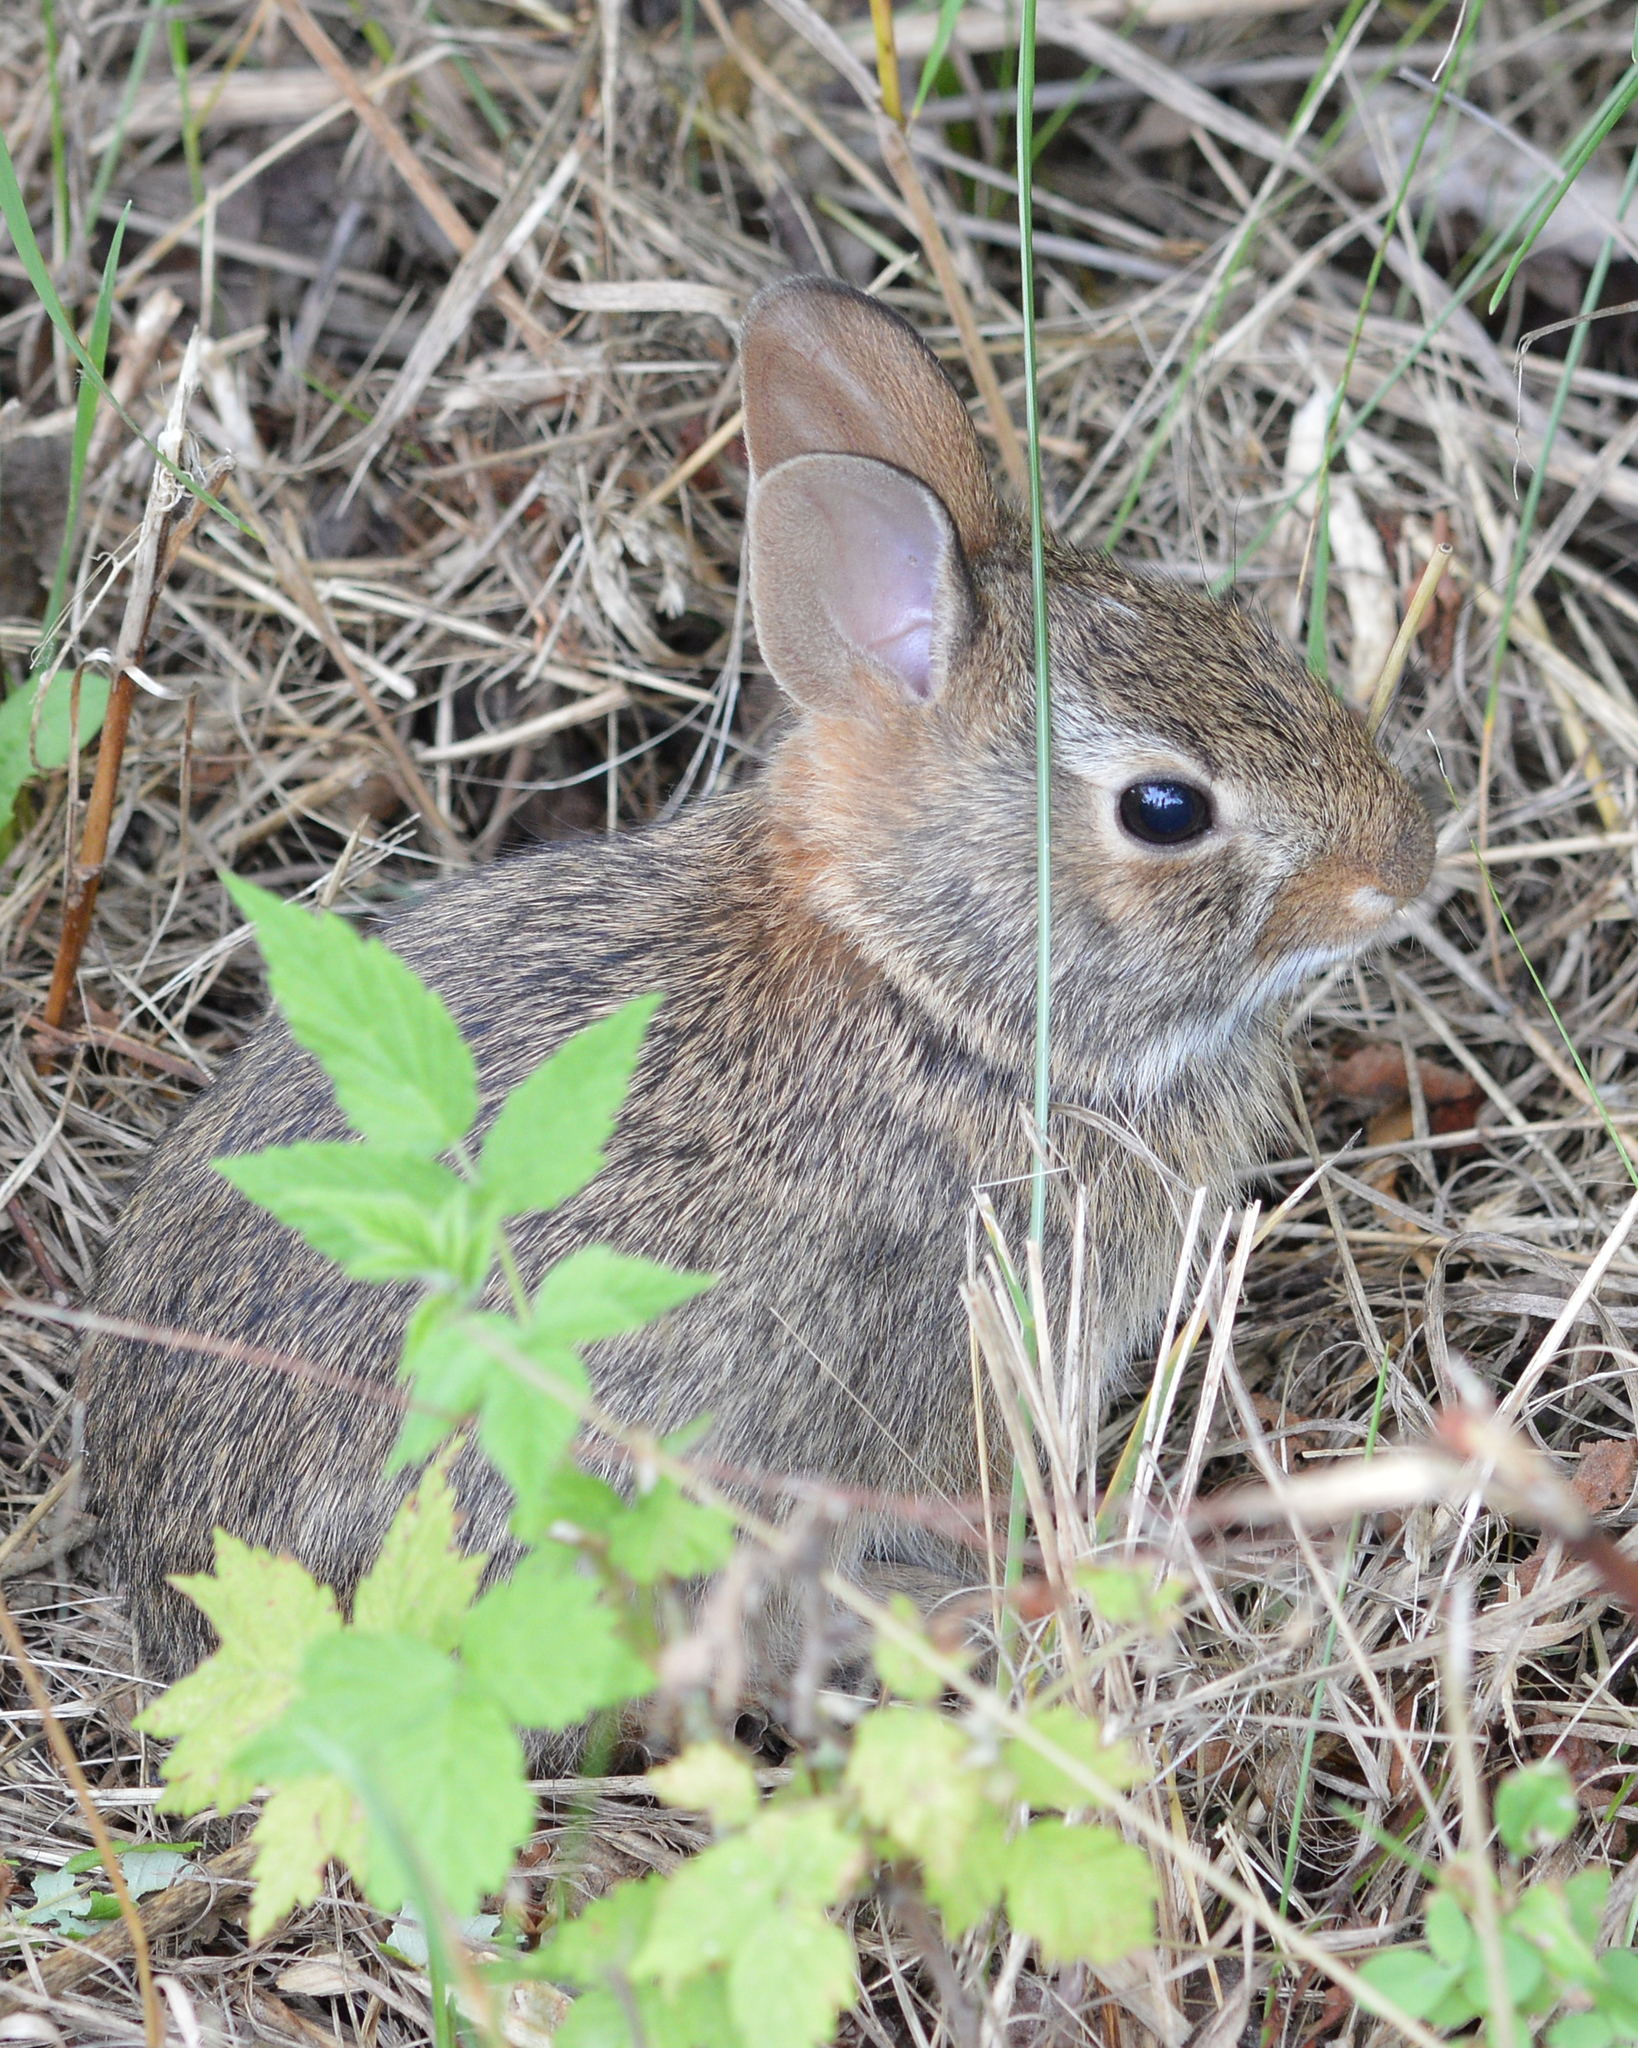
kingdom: Animalia
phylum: Chordata
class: Mammalia
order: Lagomorpha
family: Leporidae
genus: Sylvilagus
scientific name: Sylvilagus floridanus
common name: Eastern cottontail
